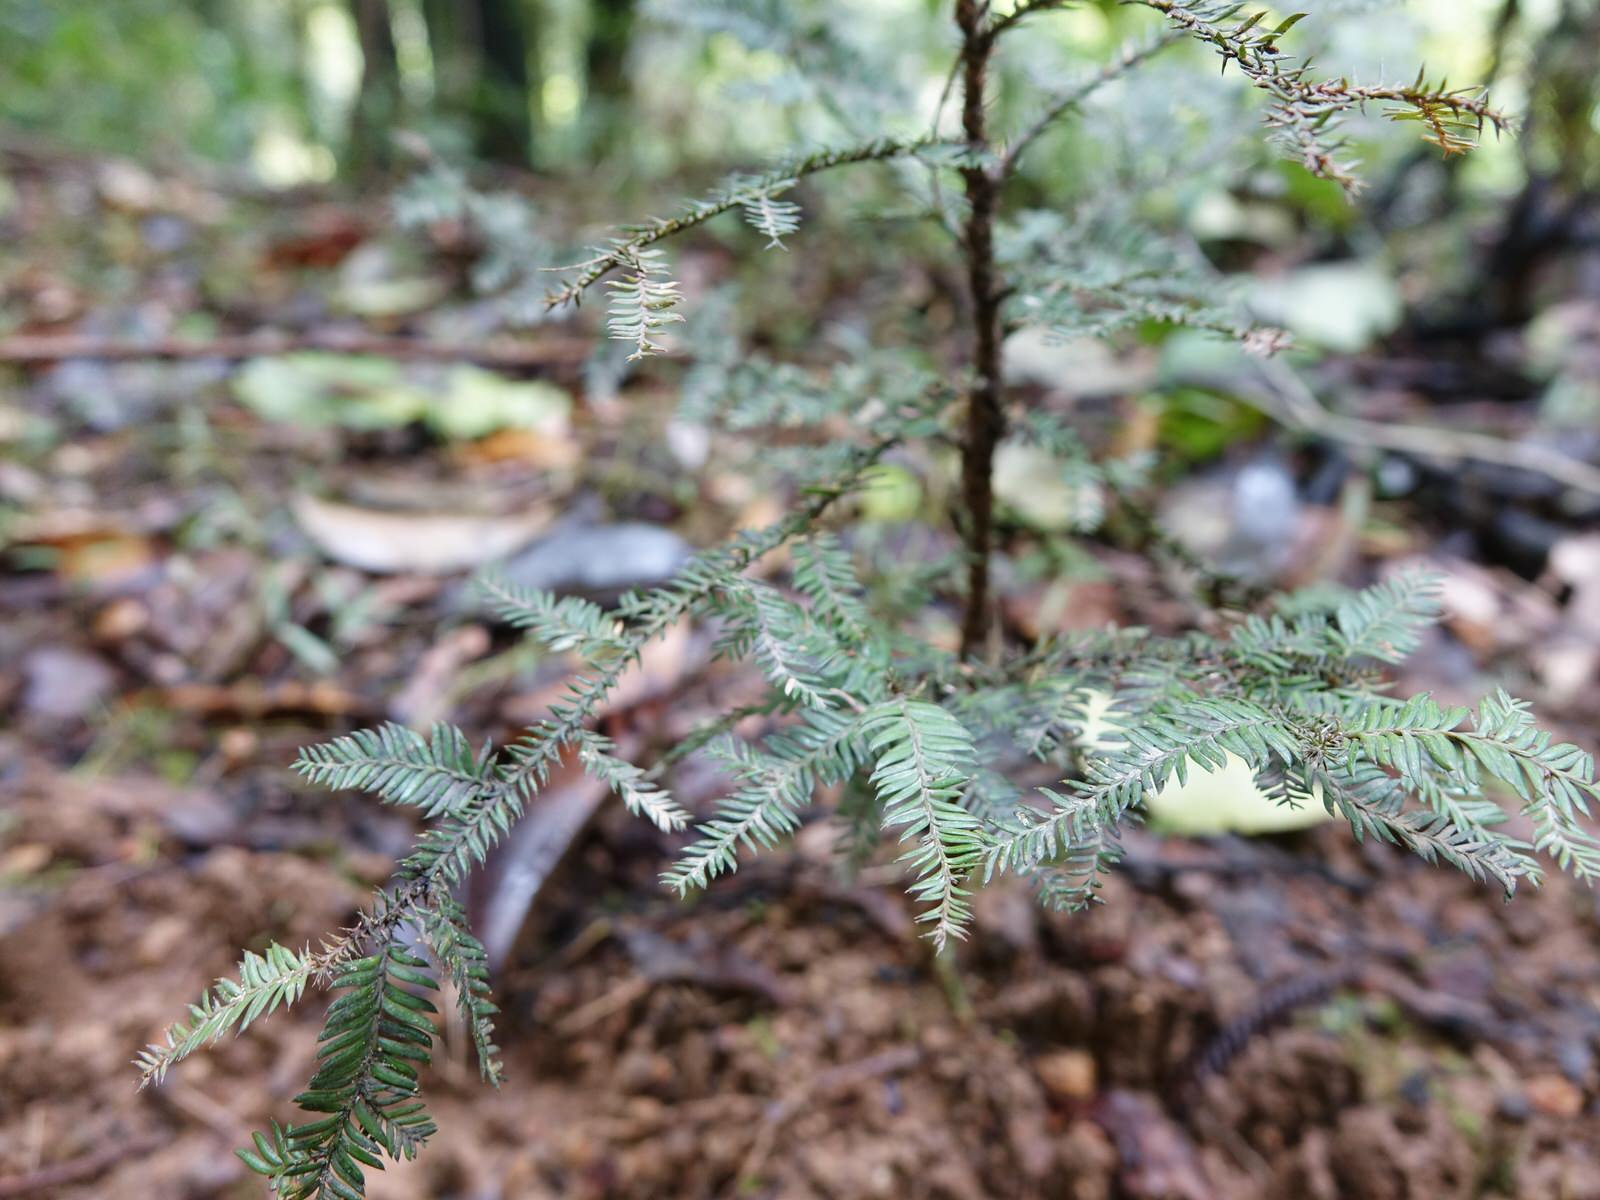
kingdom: Plantae
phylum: Tracheophyta
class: Pinopsida
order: Pinales
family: Podocarpaceae
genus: Dacrycarpus
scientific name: Dacrycarpus dacrydioides
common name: White pine
